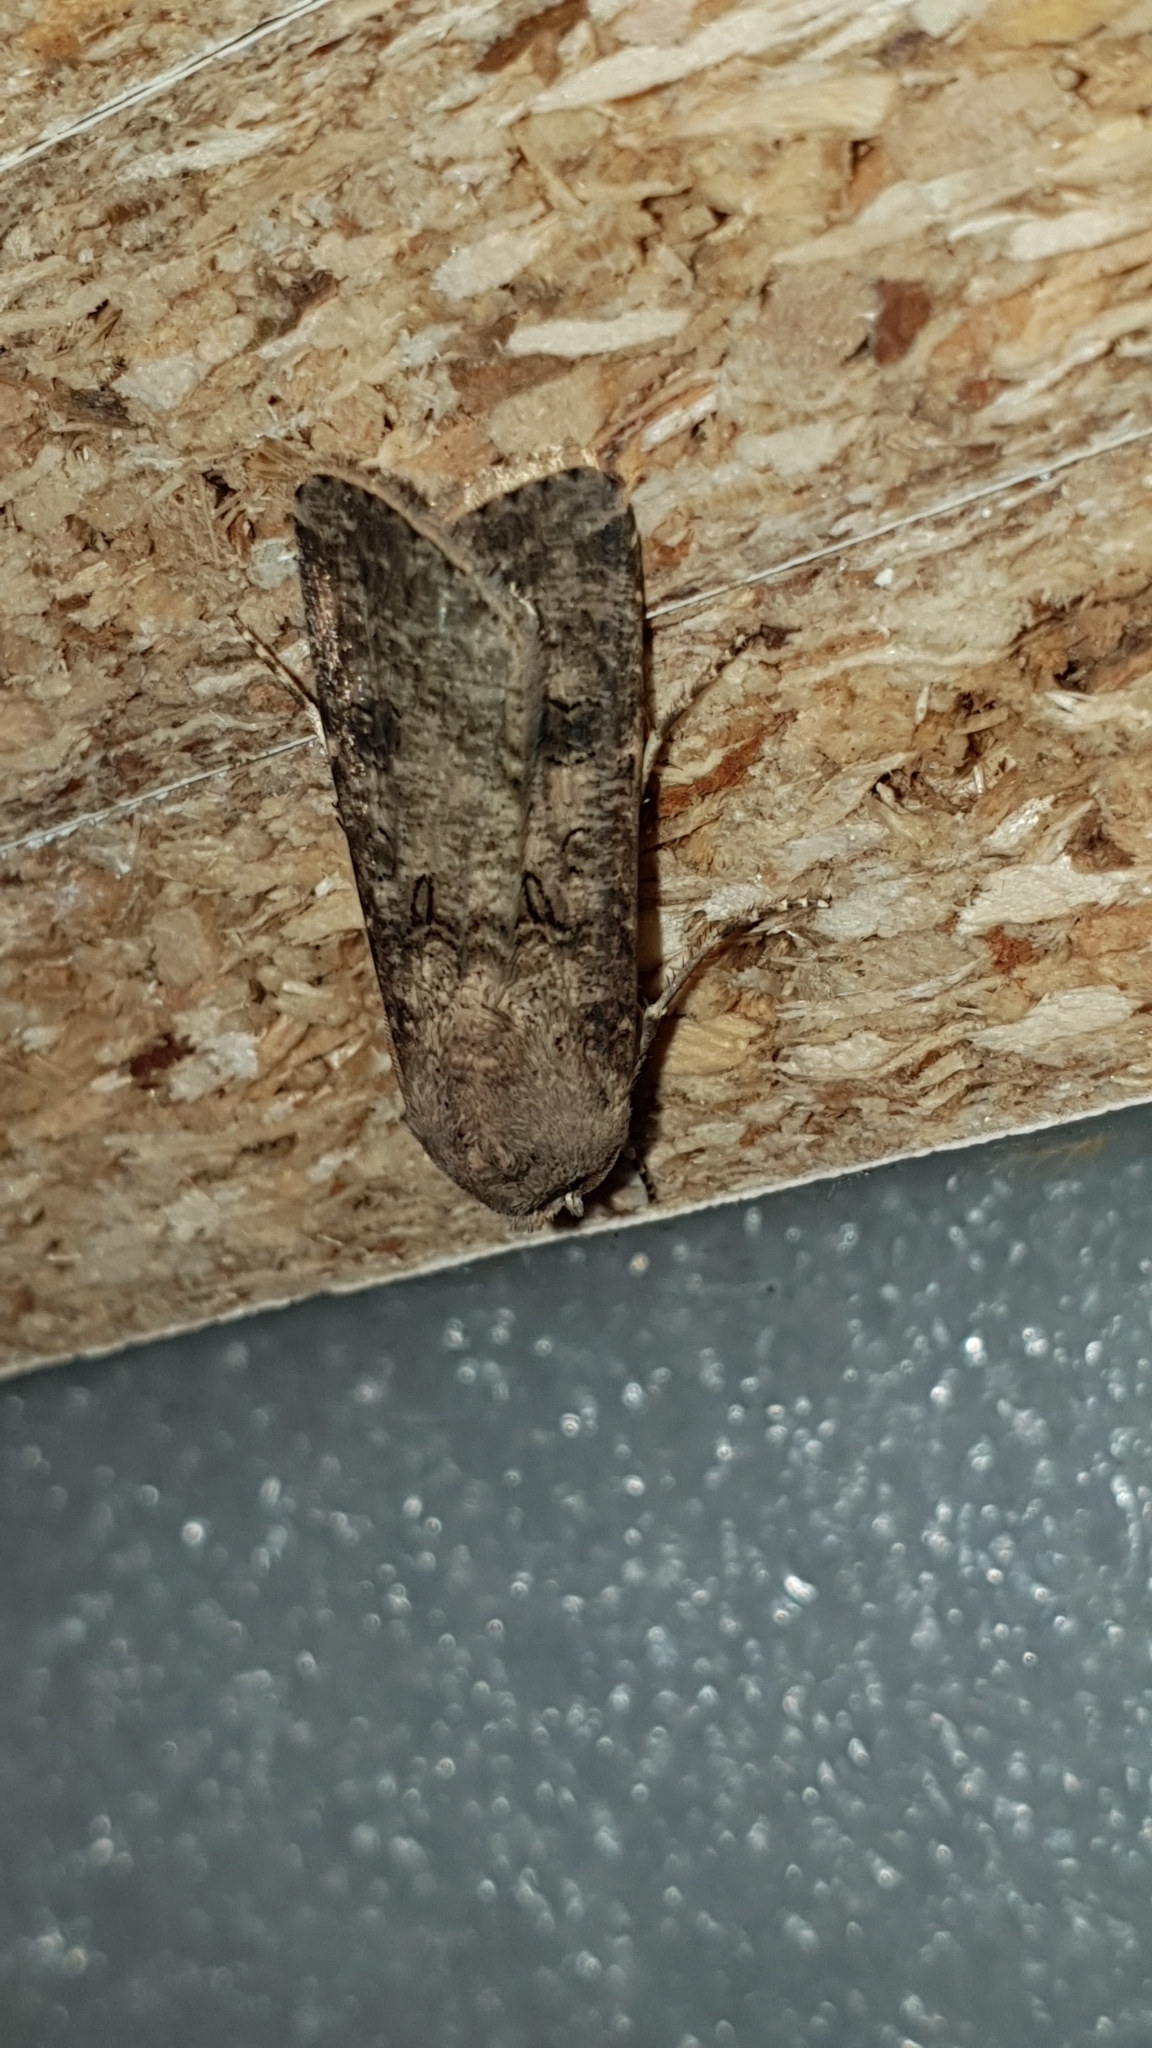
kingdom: Animalia
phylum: Arthropoda
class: Insecta
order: Lepidoptera
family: Noctuidae
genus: Agrotis
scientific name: Agrotis segetum
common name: Turnip moth
